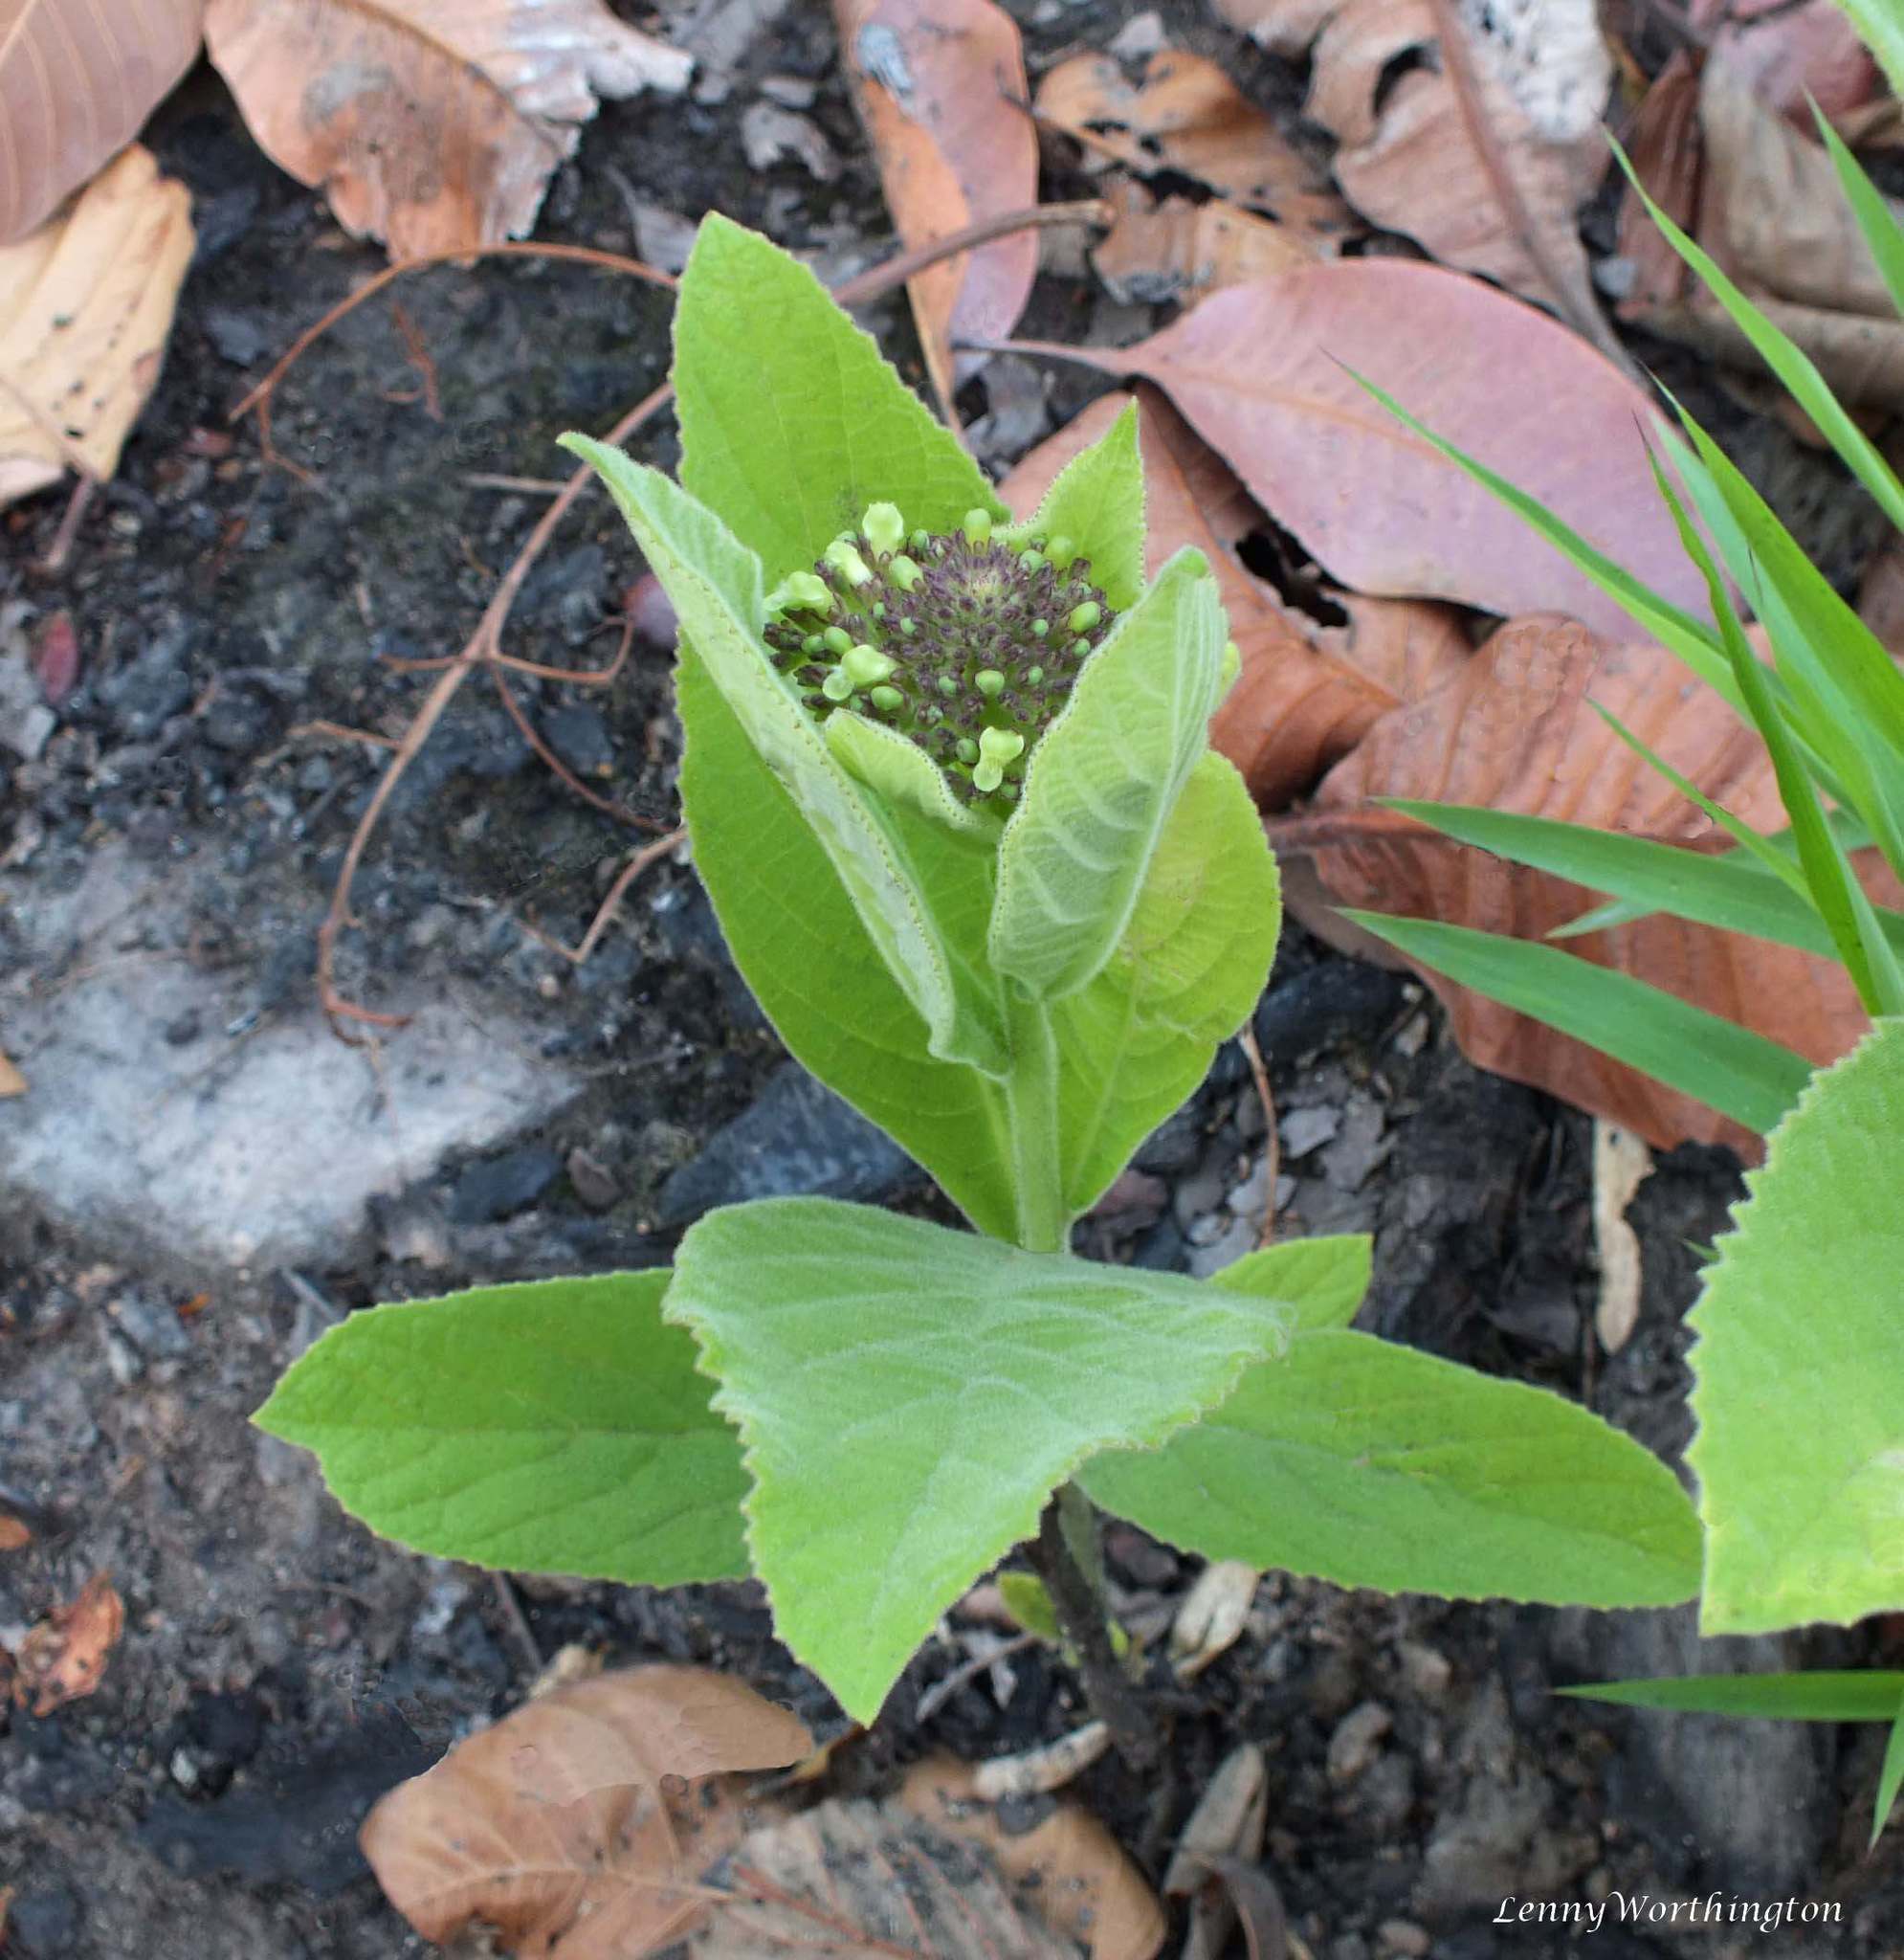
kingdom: Plantae
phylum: Tracheophyta
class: Magnoliopsida
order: Lamiales
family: Lamiaceae
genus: Premna
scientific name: Premna herbacea
